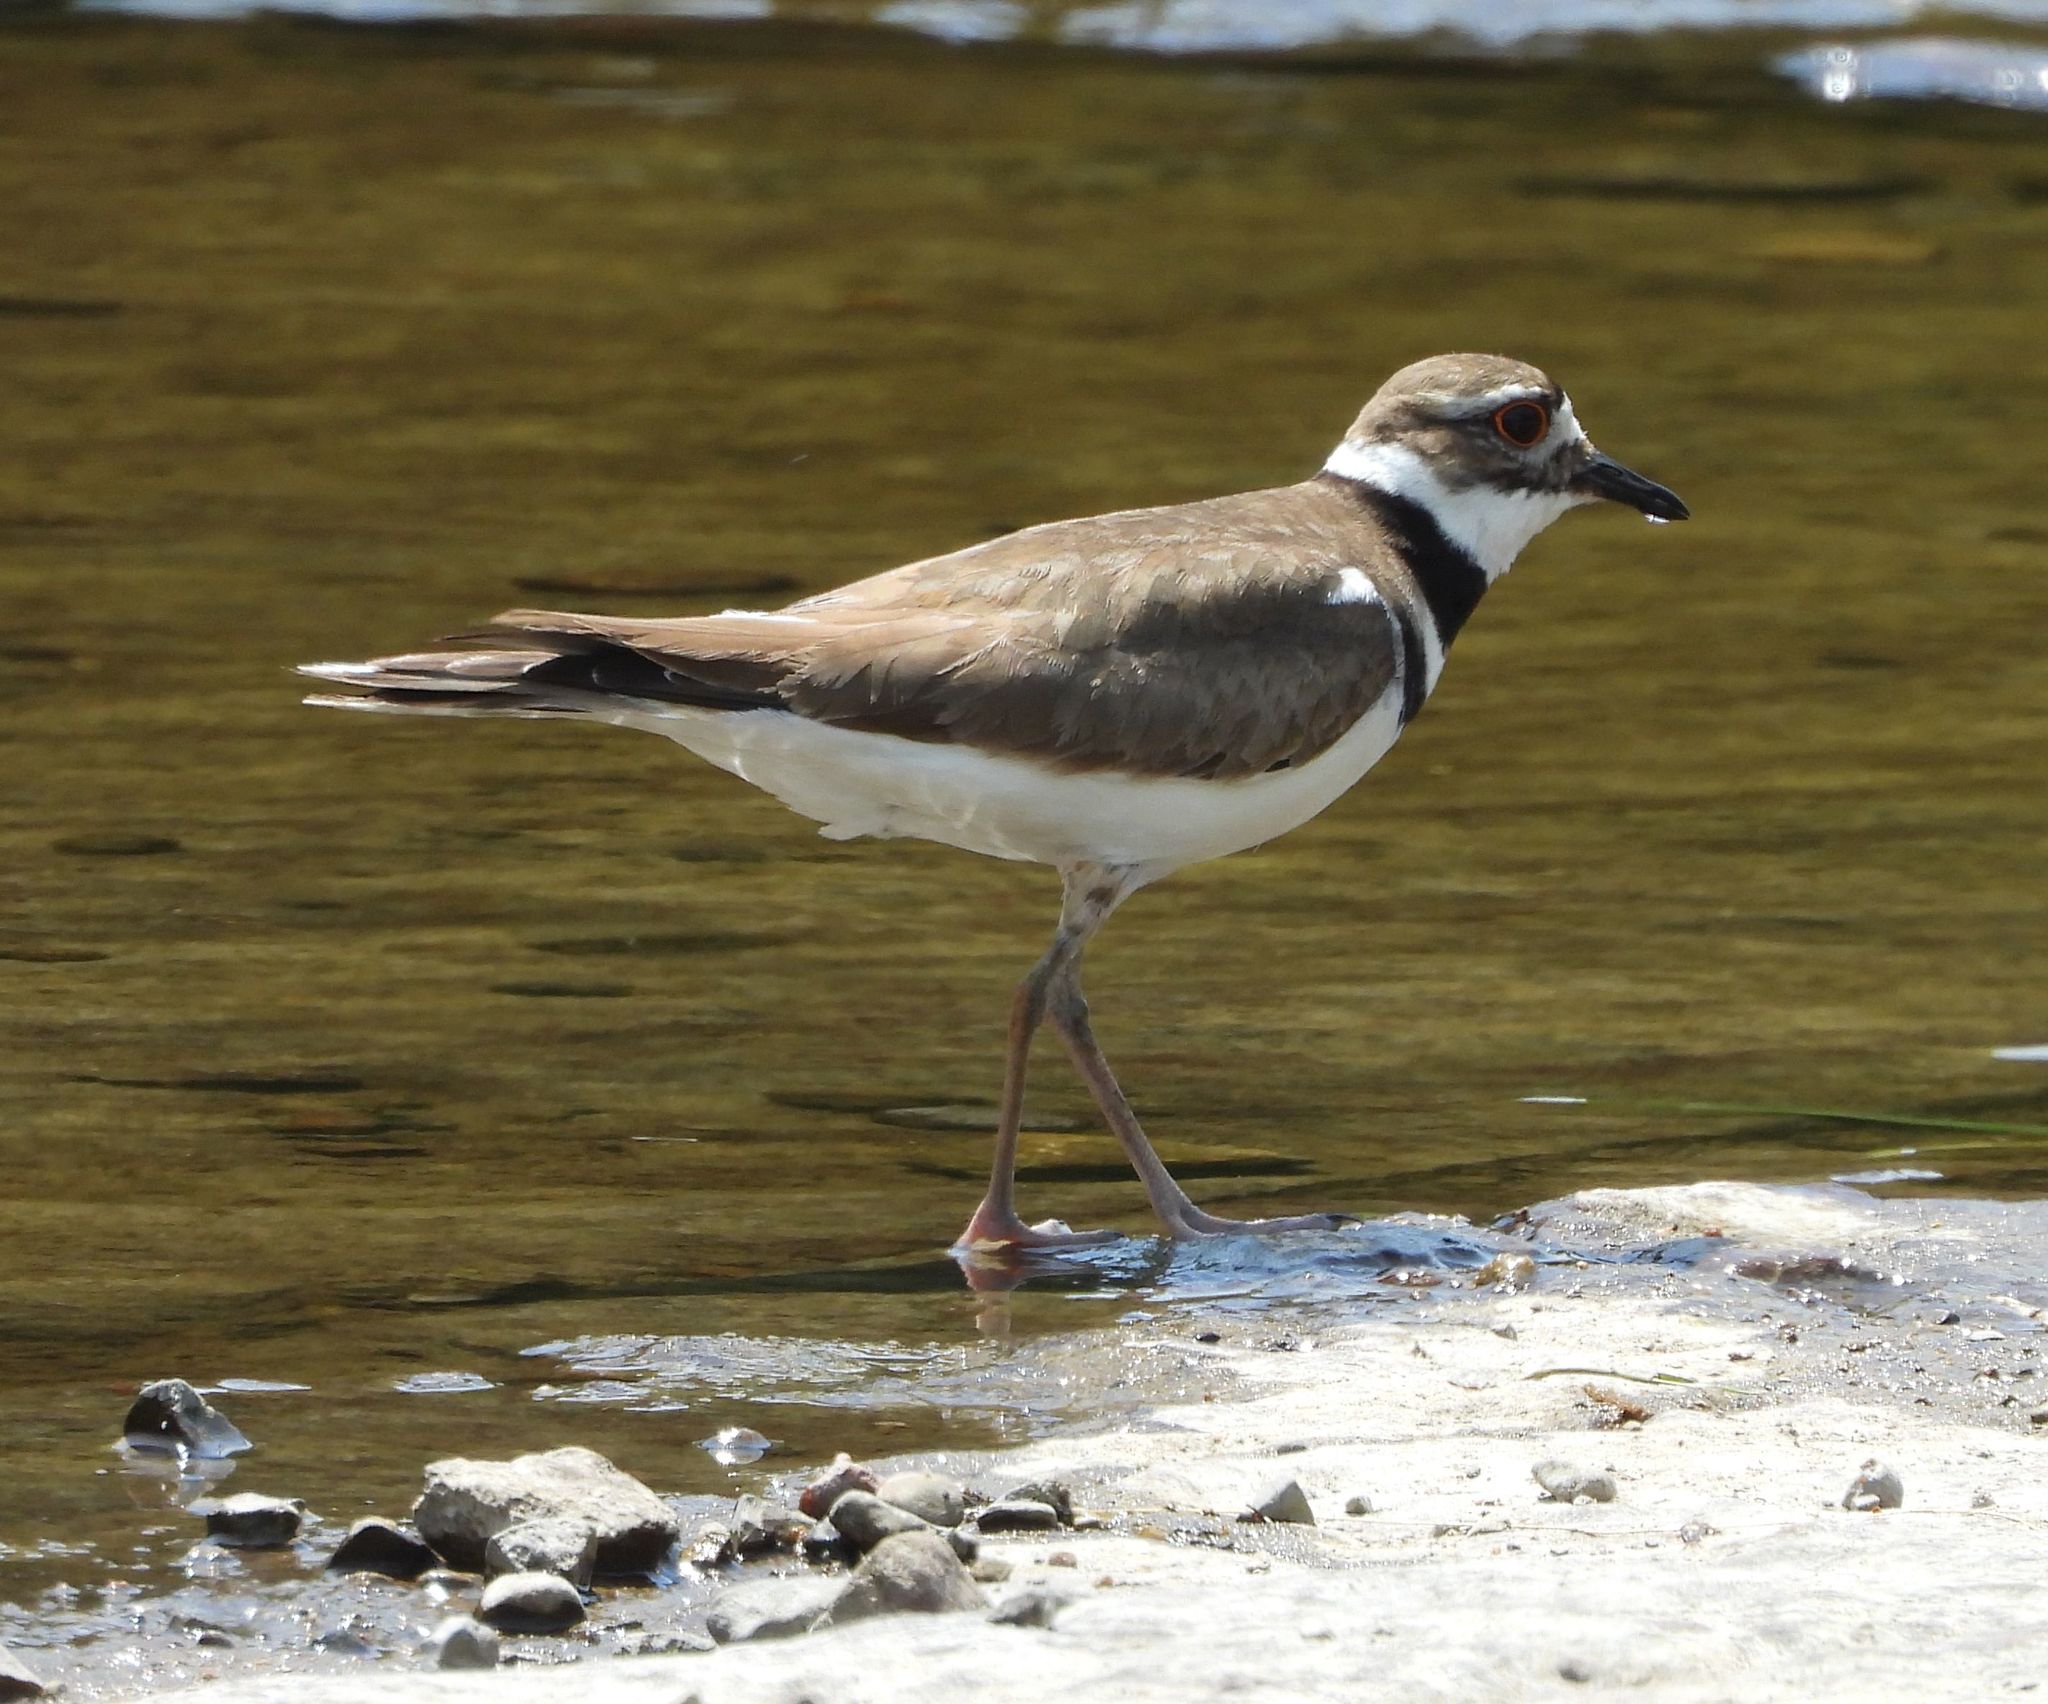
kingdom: Animalia
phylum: Chordata
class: Aves
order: Charadriiformes
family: Charadriidae
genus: Charadrius
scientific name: Charadrius vociferus
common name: Killdeer
